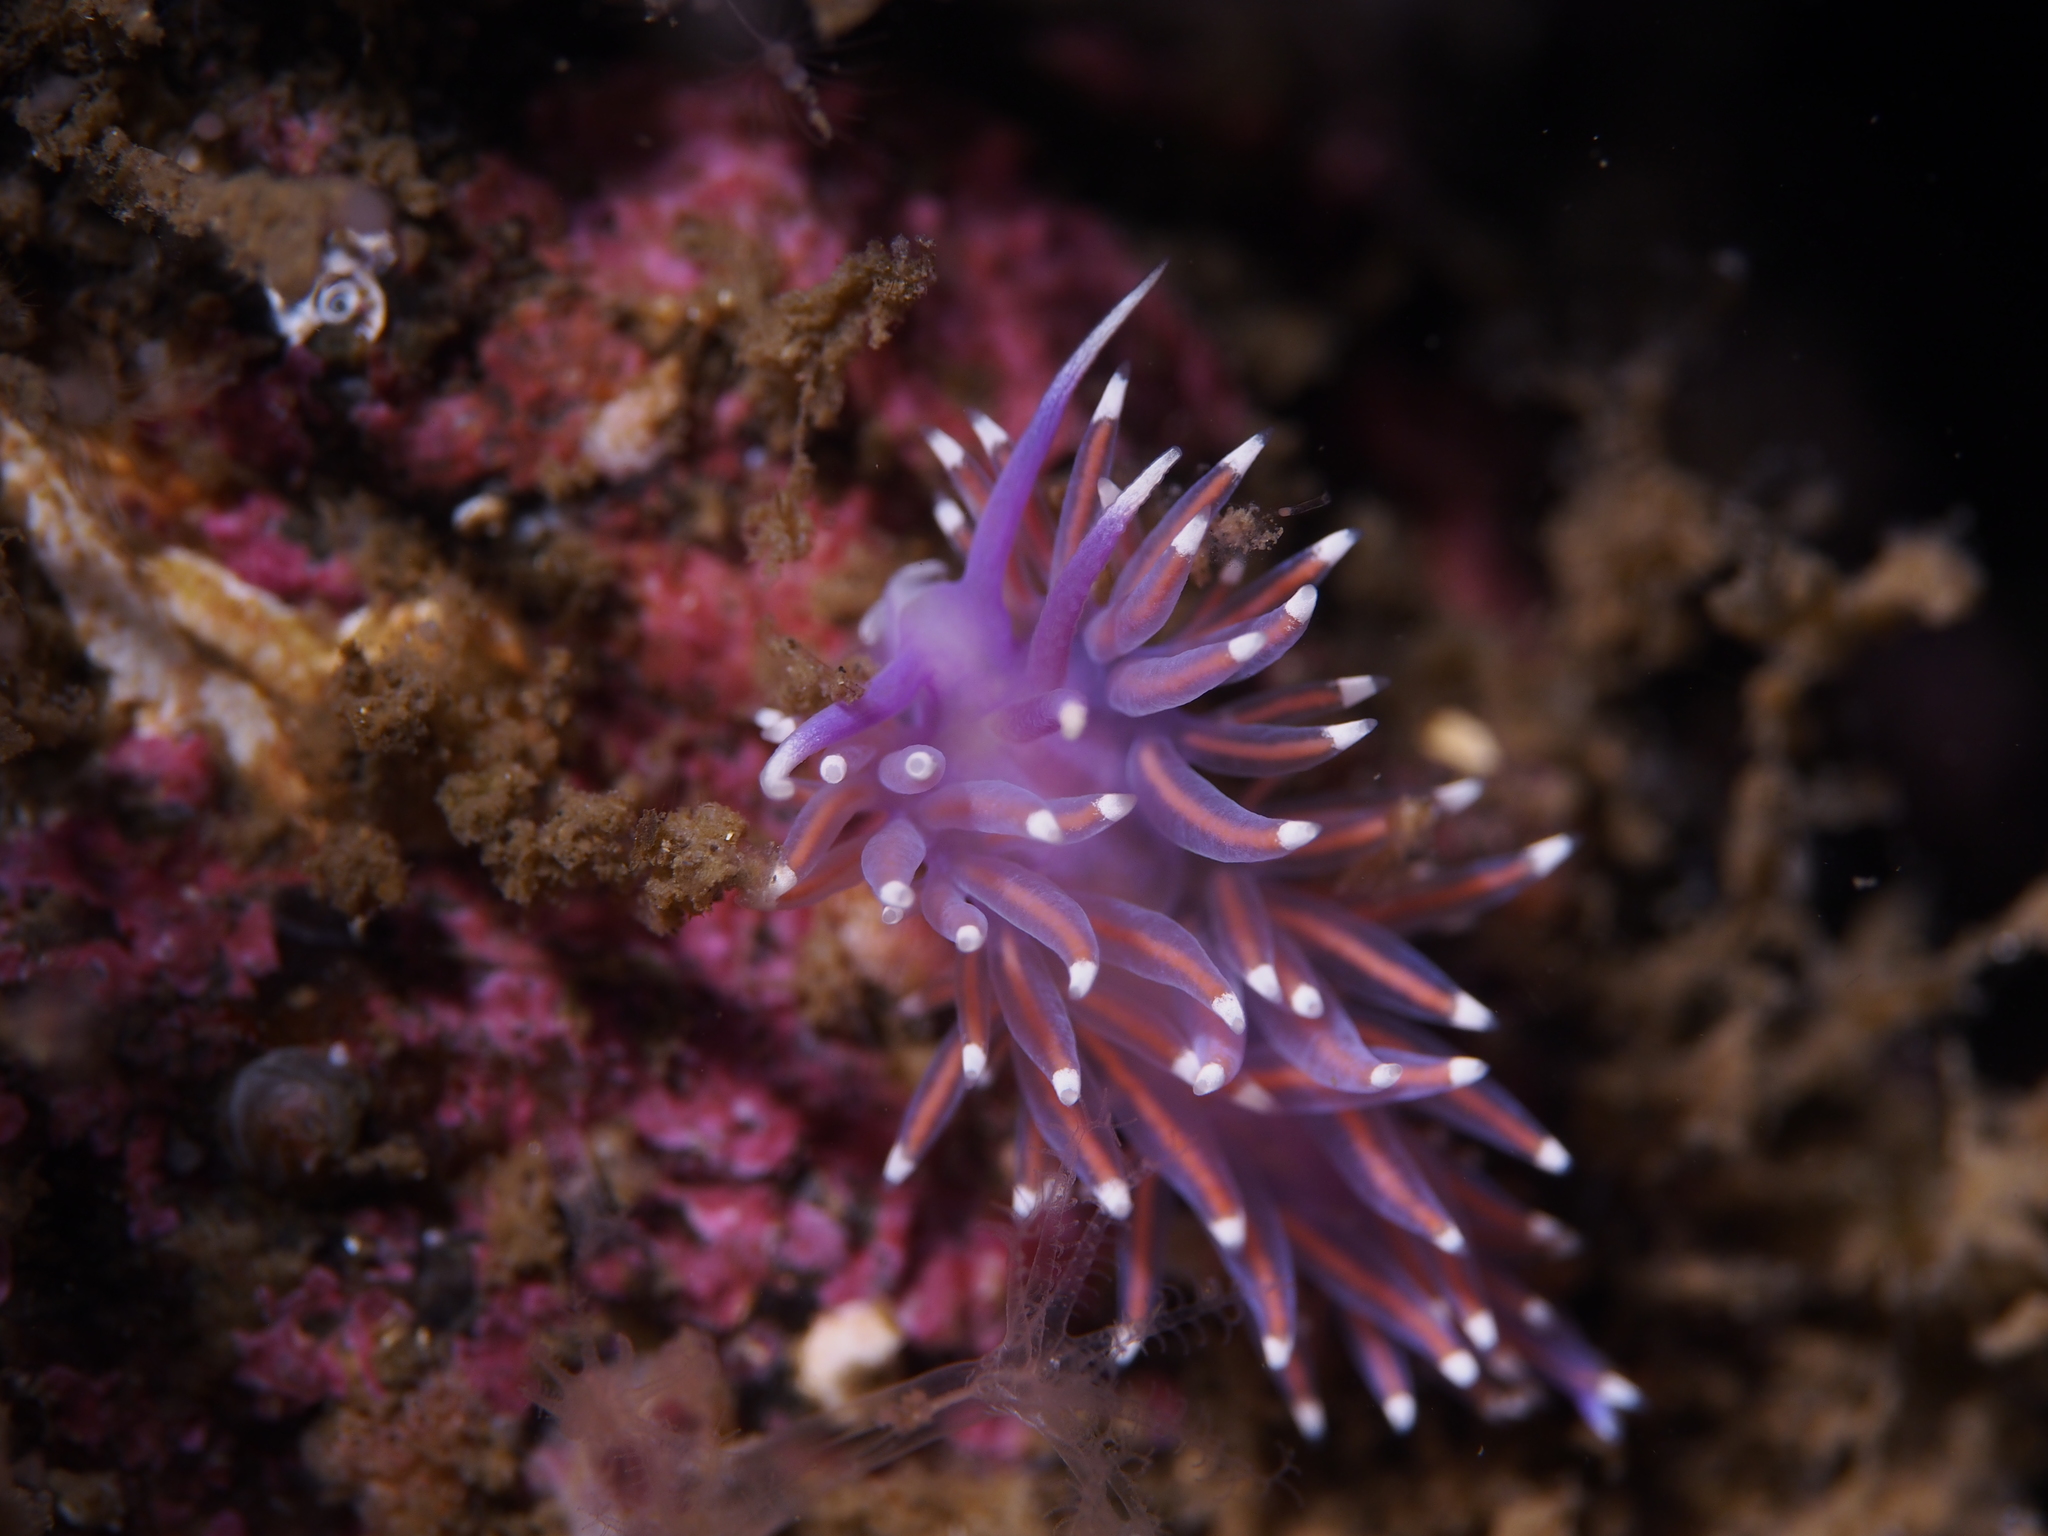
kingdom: Animalia
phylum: Mollusca
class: Gastropoda
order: Nudibranchia
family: Flabellinidae
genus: Edmundsella
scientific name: Edmundsella pedata
